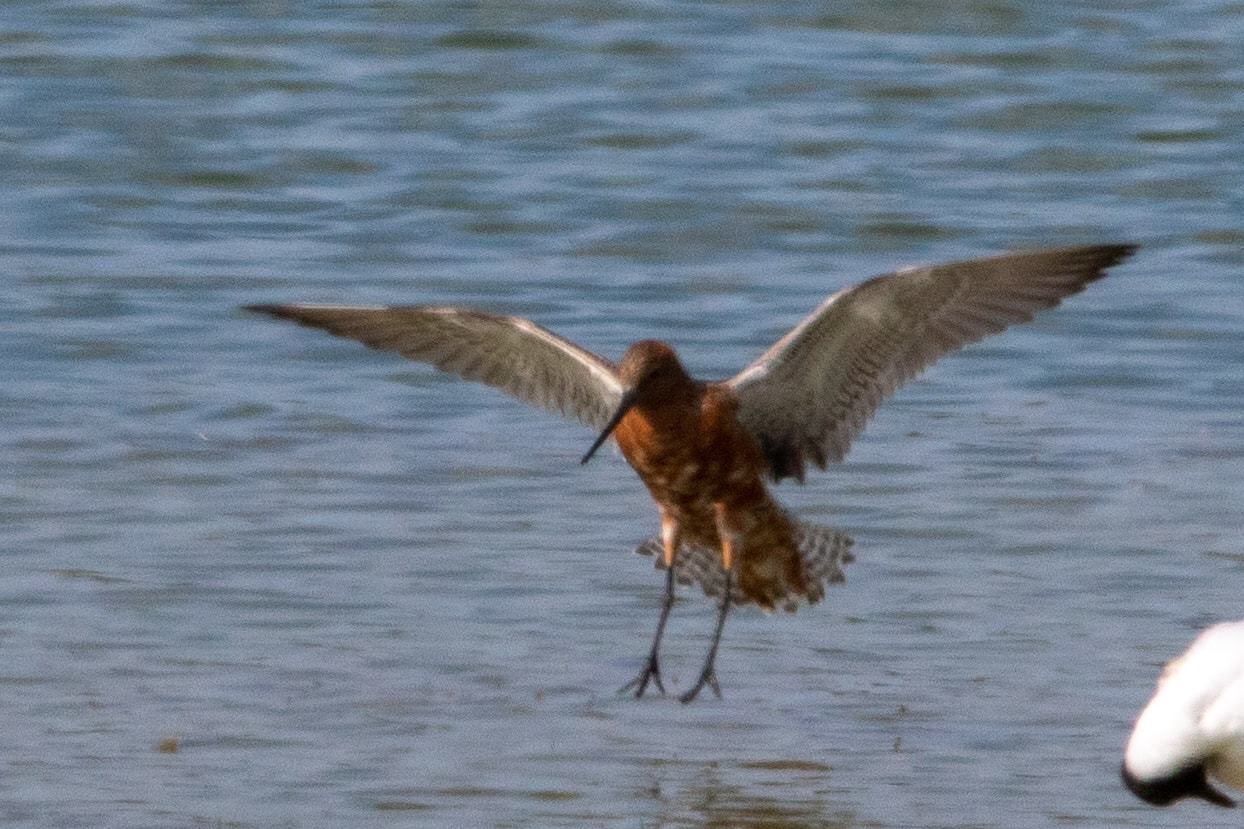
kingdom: Animalia
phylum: Chordata
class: Aves
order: Charadriiformes
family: Scolopacidae
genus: Limosa
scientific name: Limosa lapponica
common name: Bar-tailed godwit
